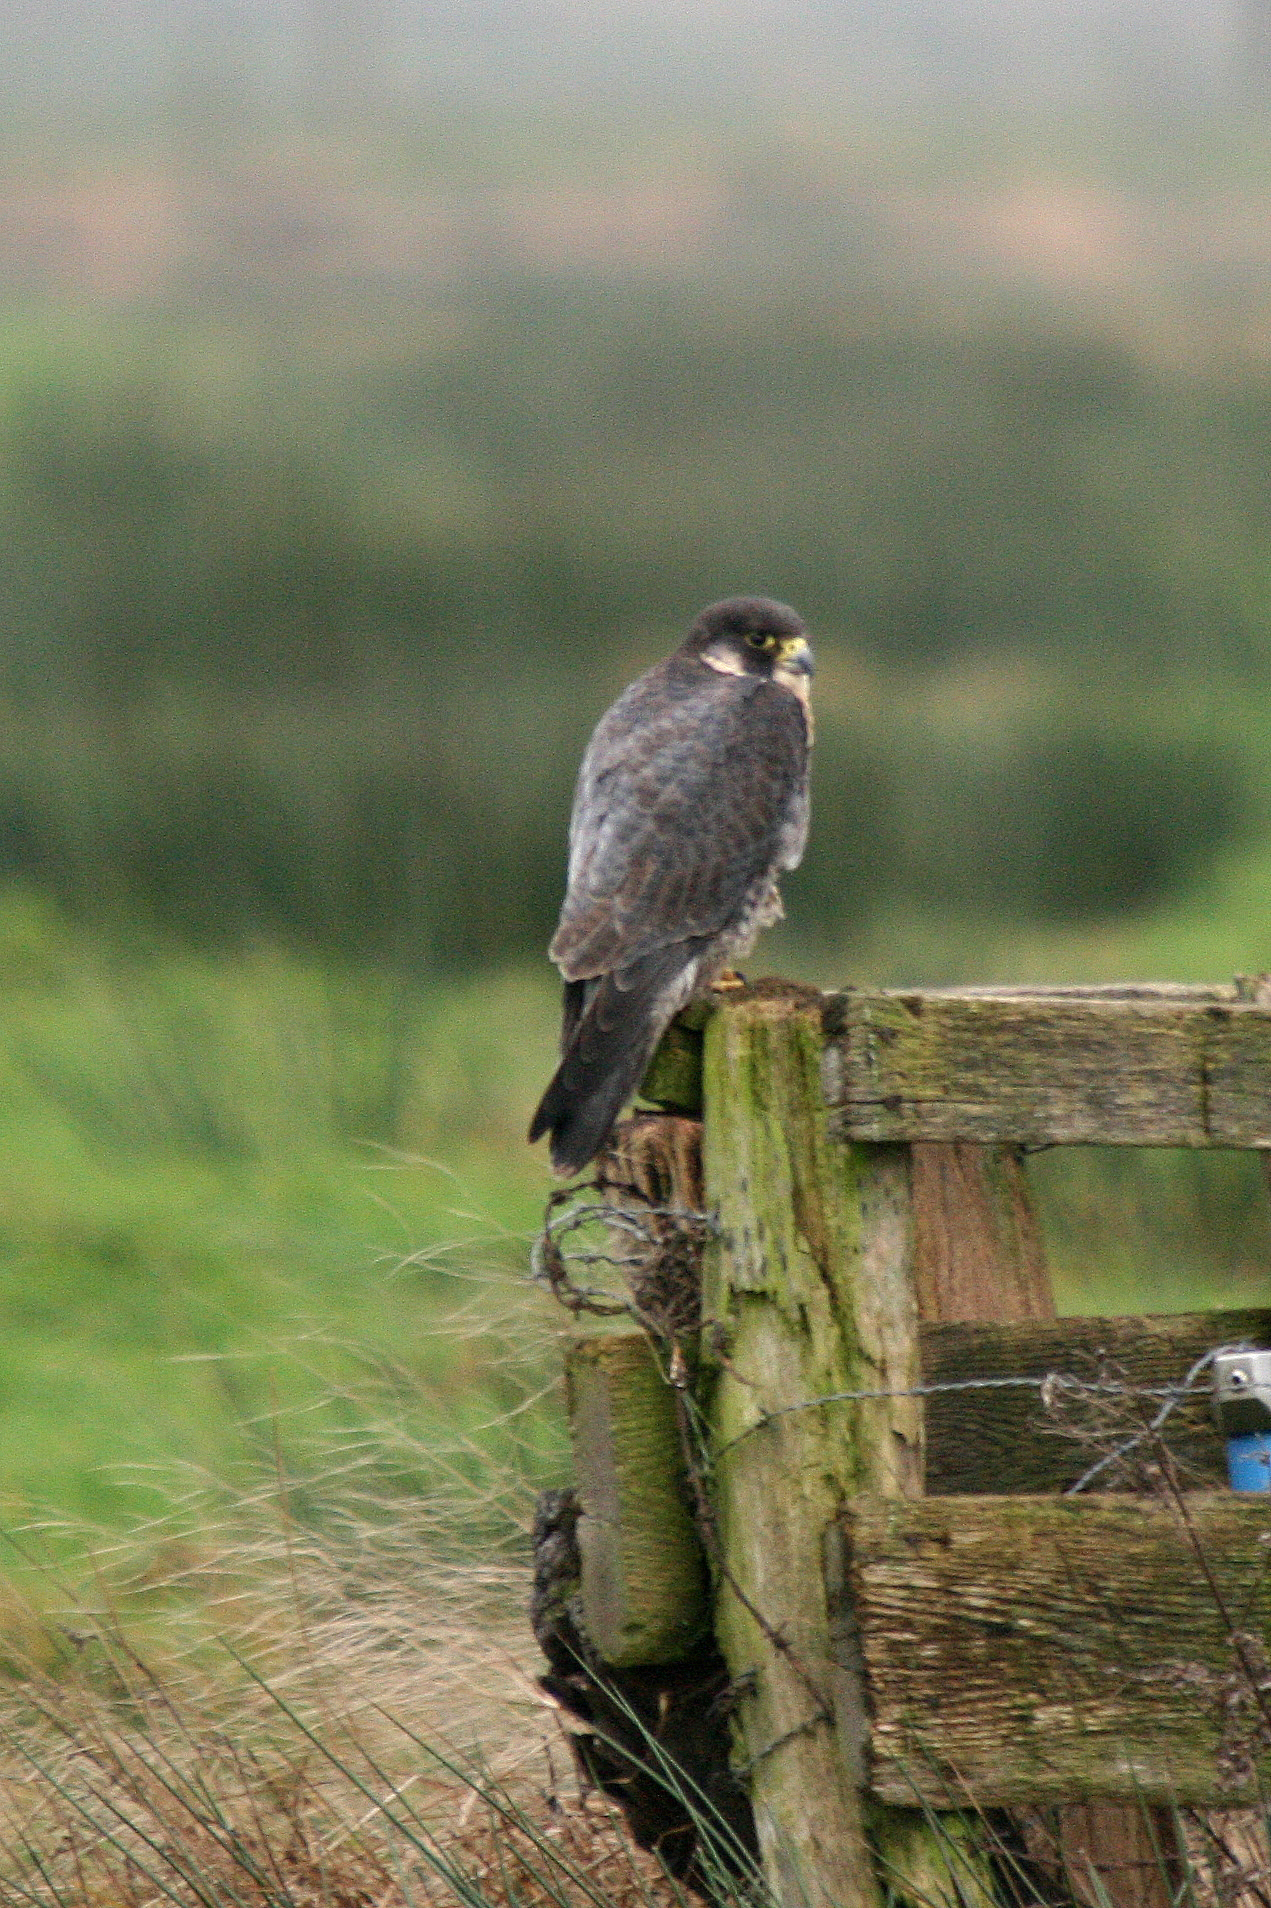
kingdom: Animalia
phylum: Chordata
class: Aves
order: Falconiformes
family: Falconidae
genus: Falco
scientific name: Falco peregrinus
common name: Peregrine falcon
